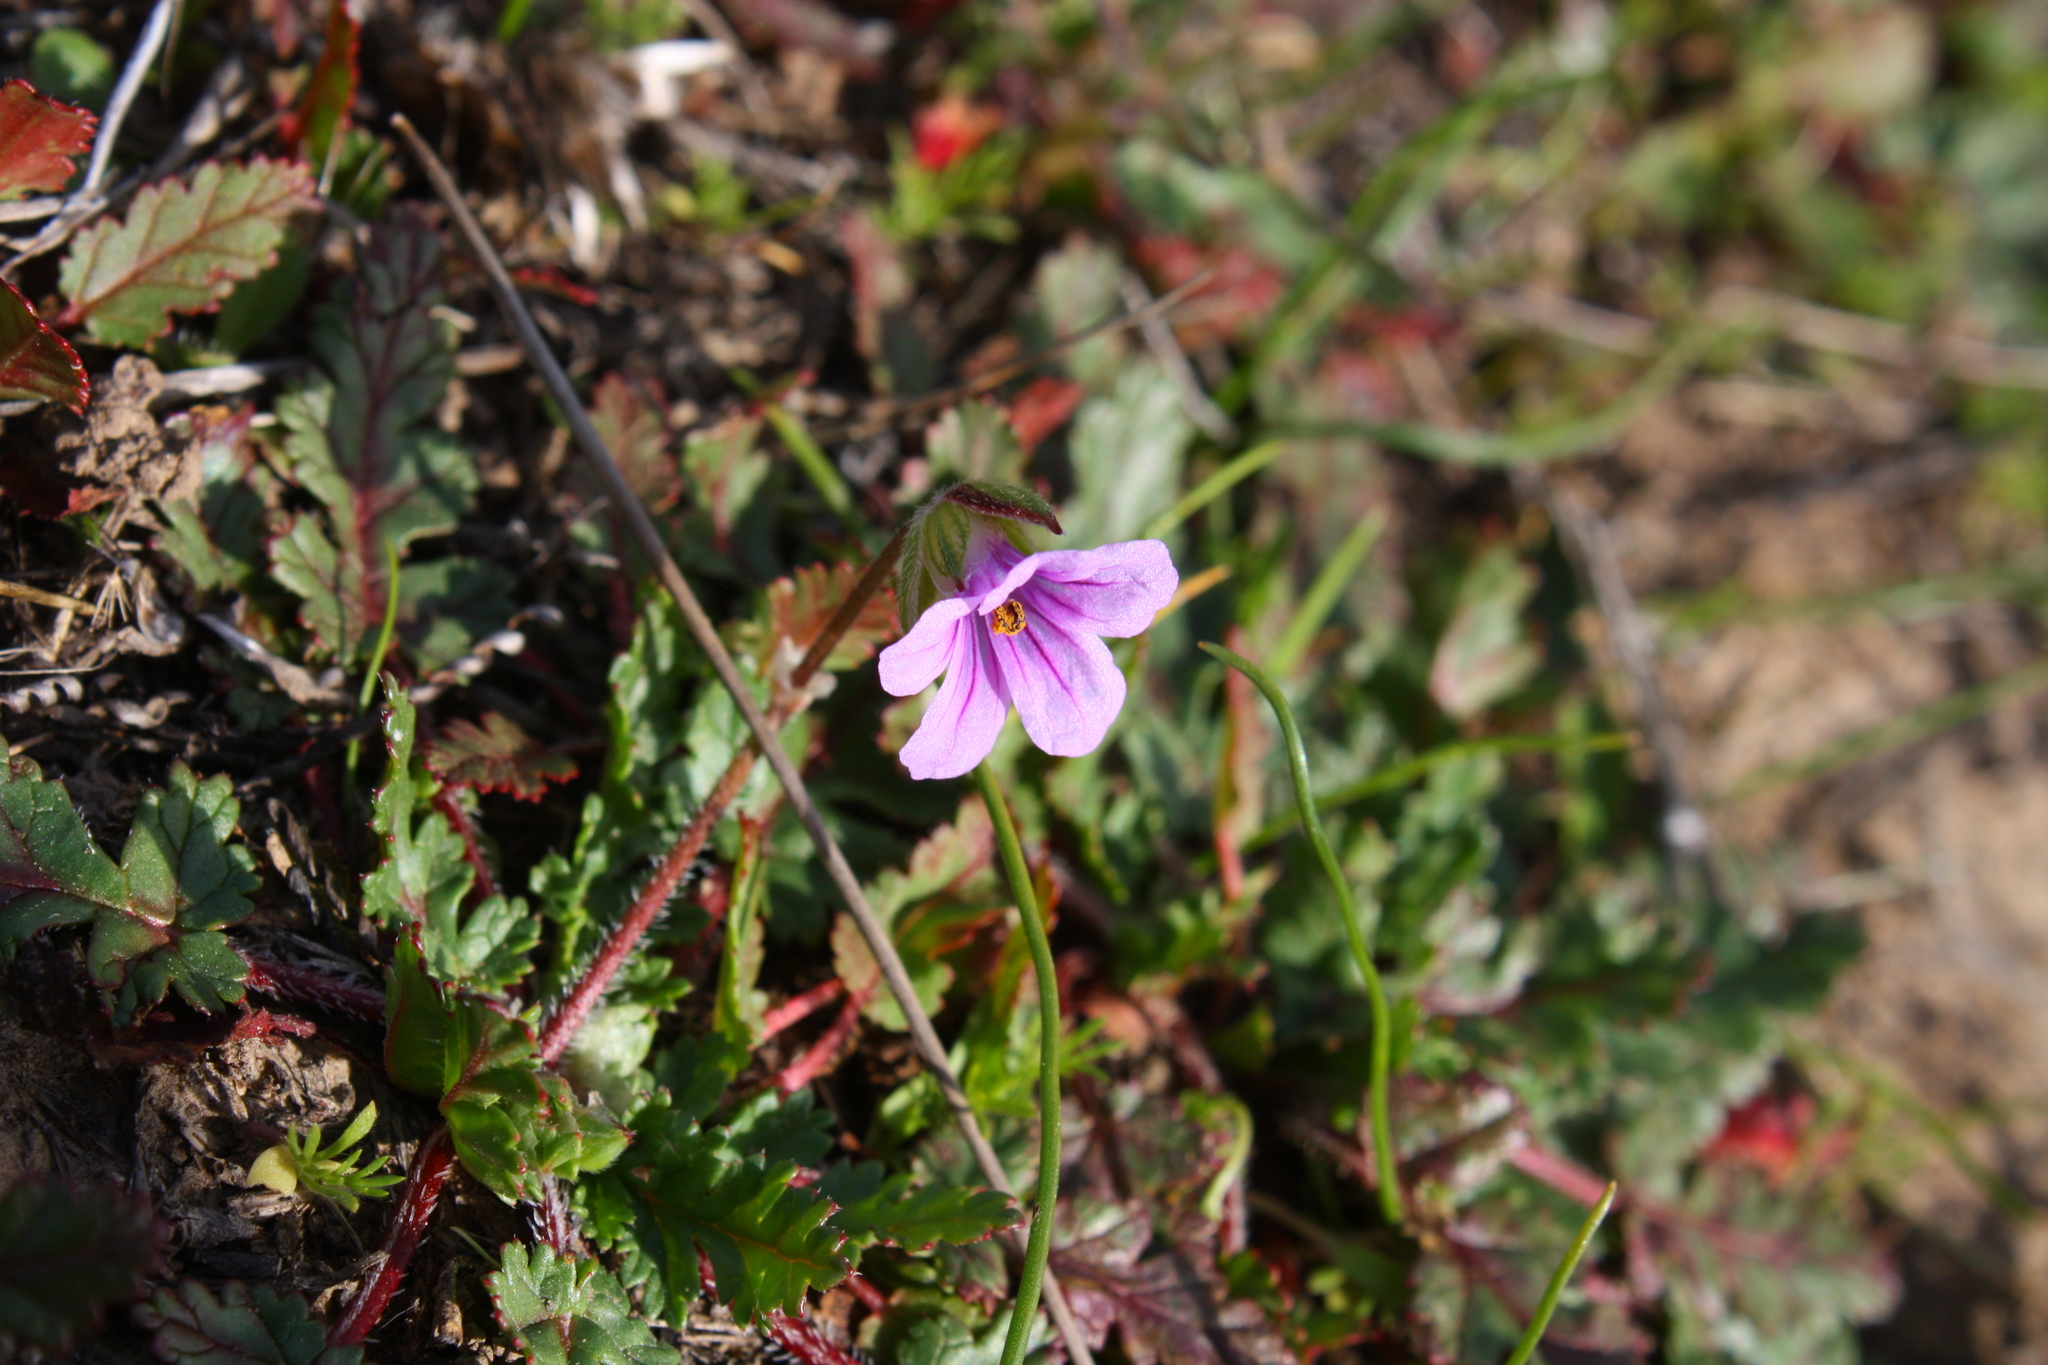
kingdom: Plantae
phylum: Tracheophyta
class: Magnoliopsida
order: Geraniales
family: Geraniaceae
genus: Erodium
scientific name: Erodium botrys
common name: Mediterranean stork's-bill
